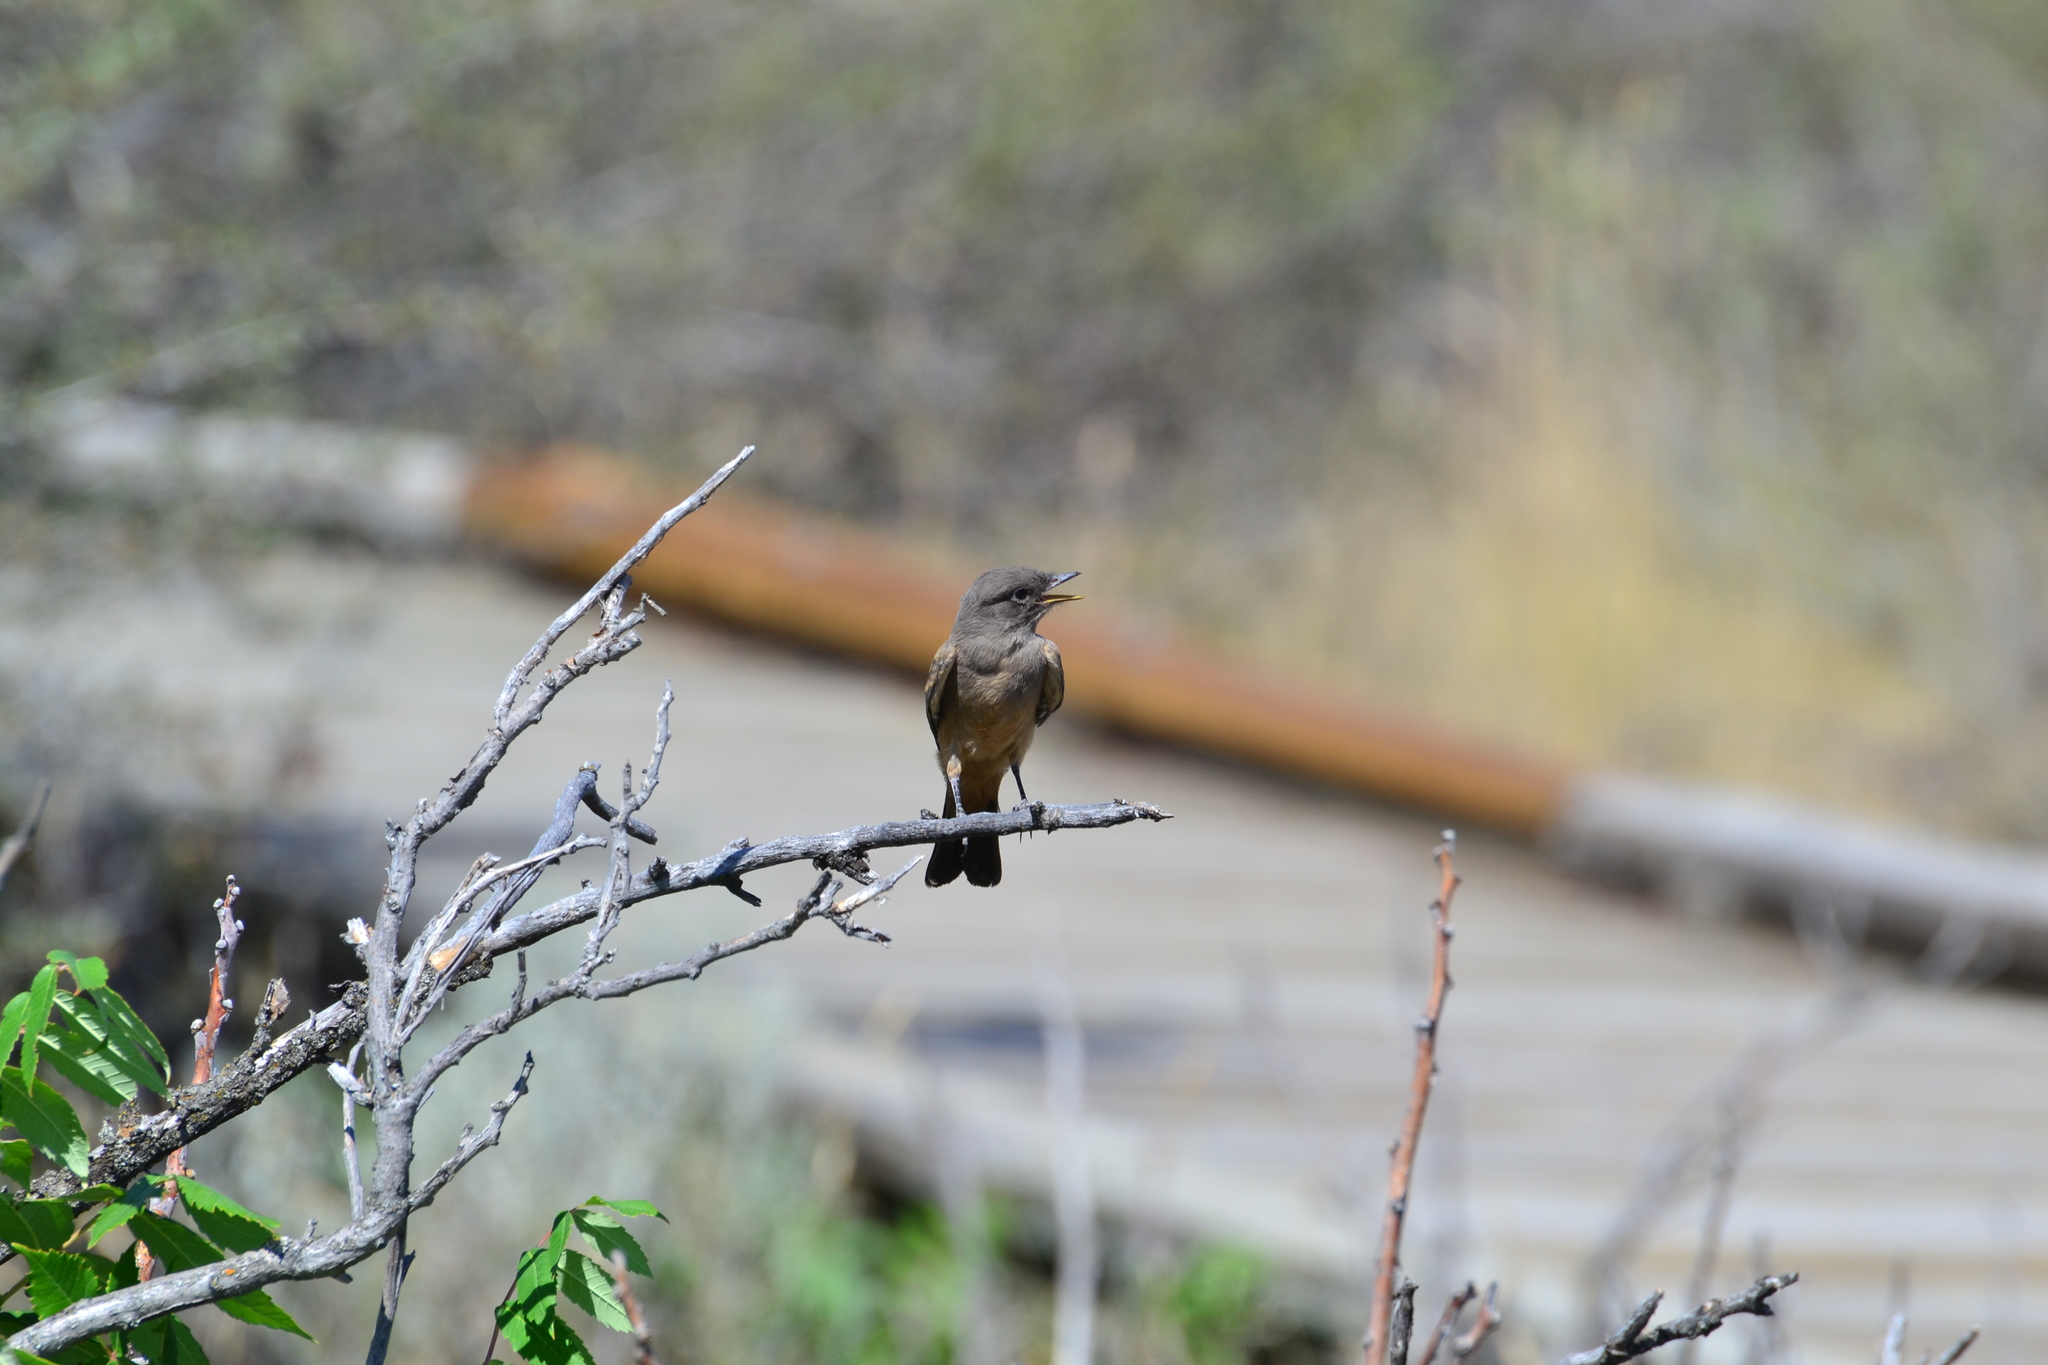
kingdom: Animalia
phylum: Chordata
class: Aves
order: Passeriformes
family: Tyrannidae
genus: Sayornis
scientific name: Sayornis saya
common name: Say's phoebe
